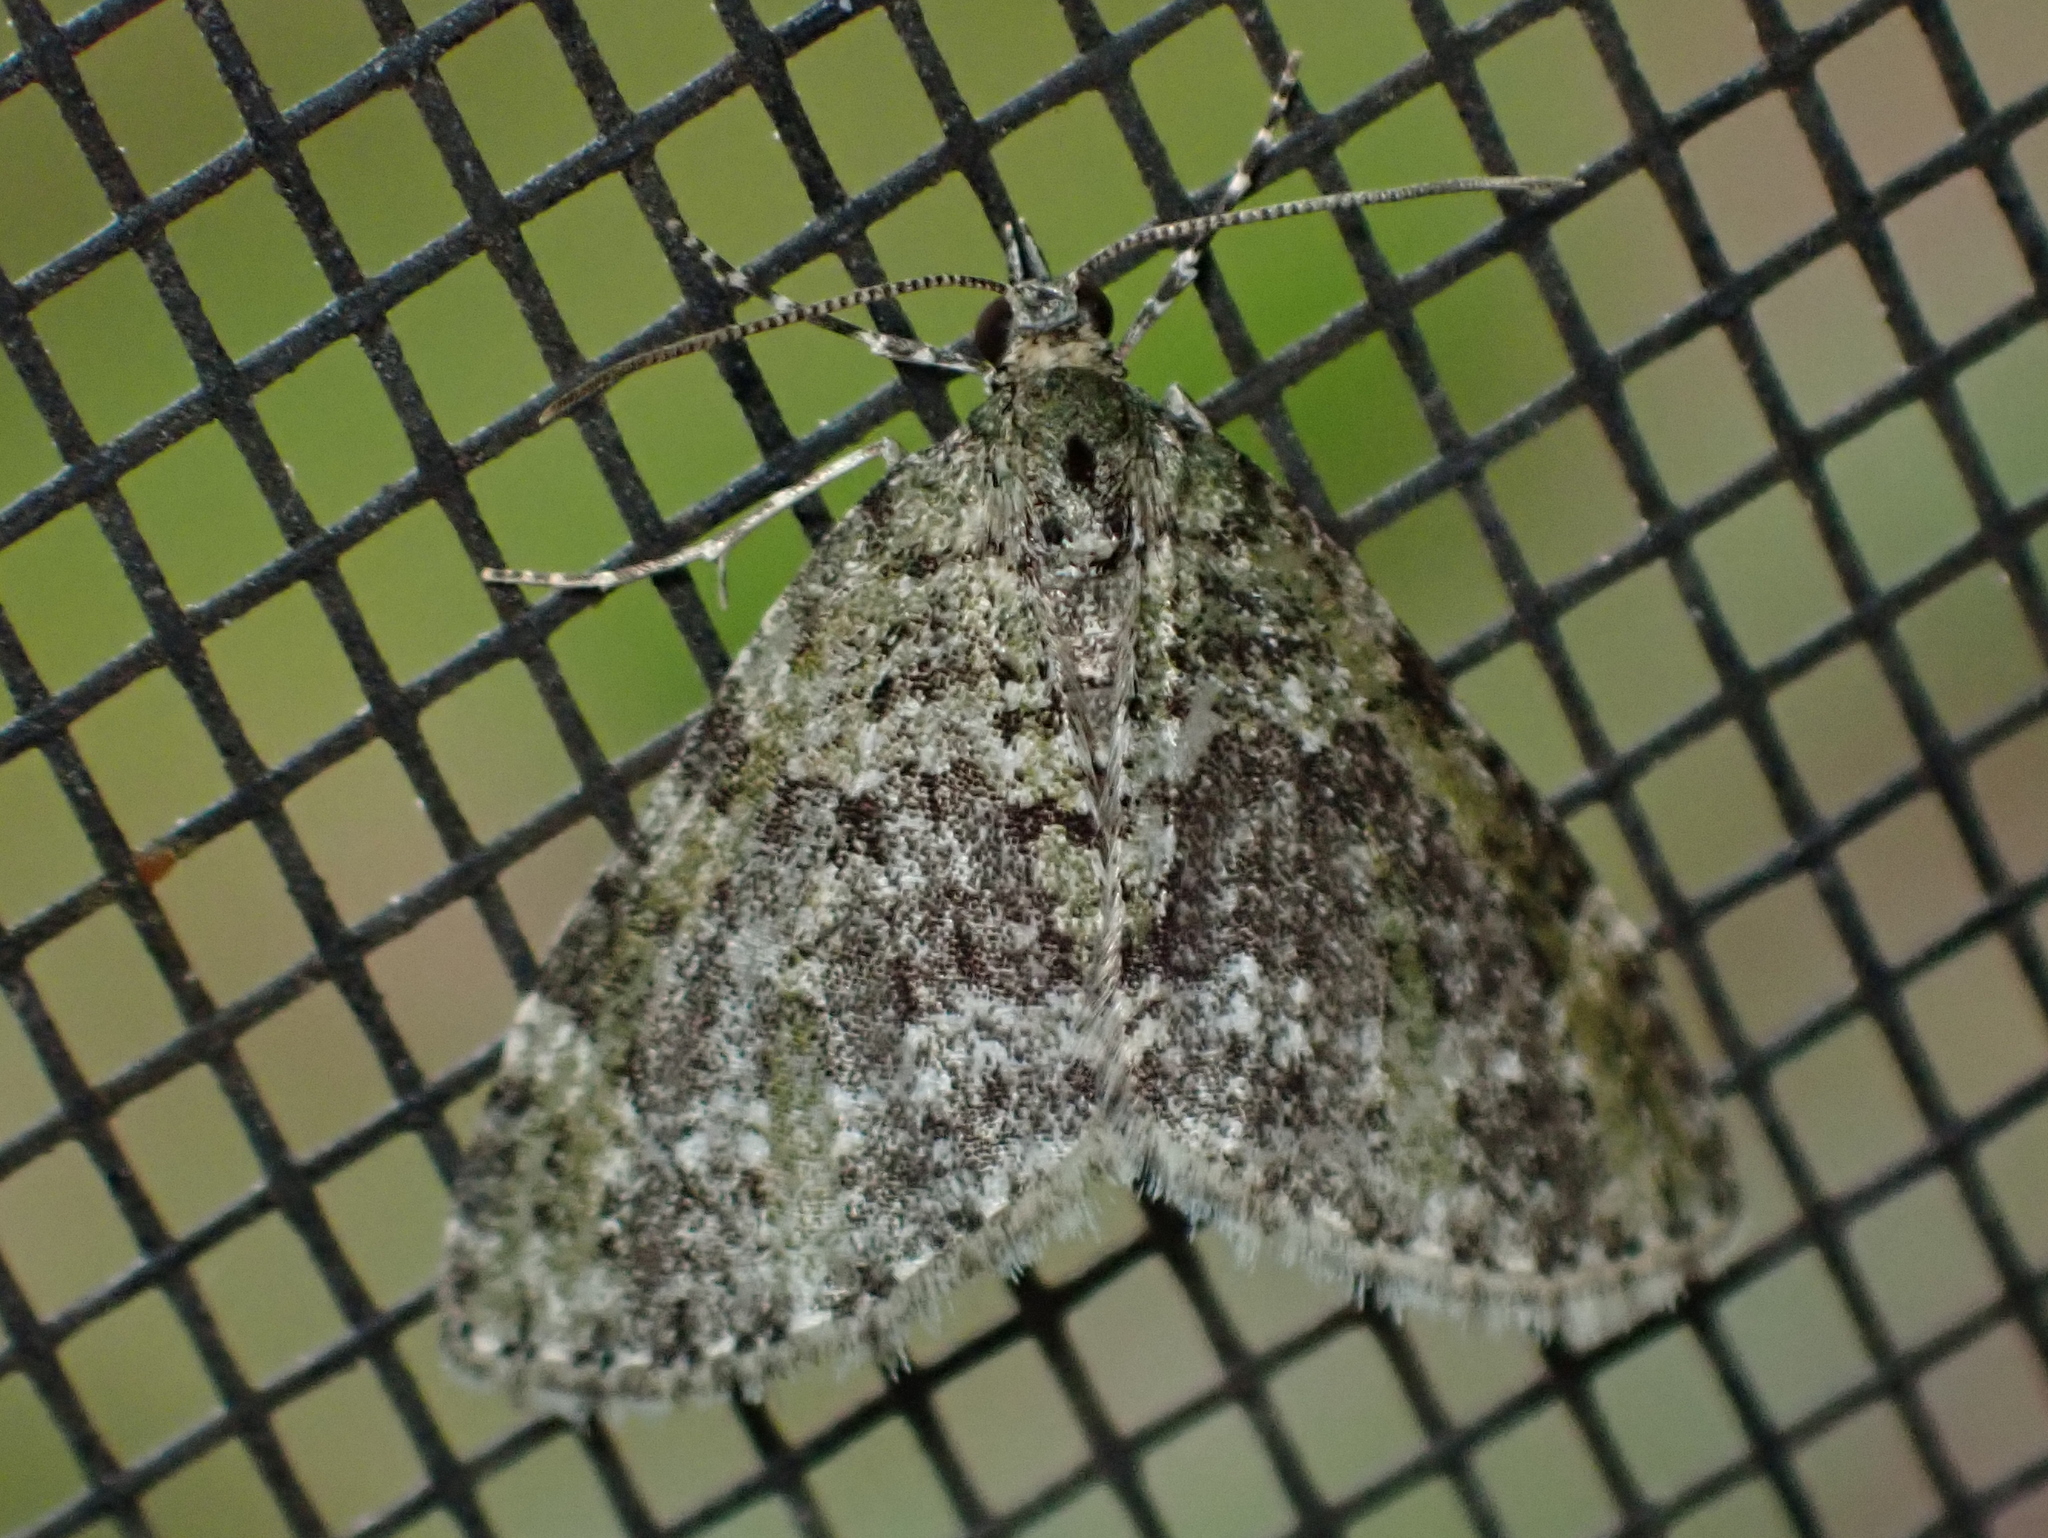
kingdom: Animalia
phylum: Arthropoda
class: Insecta
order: Lepidoptera
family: Geometridae
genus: Acasis
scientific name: Acasis viridata
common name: Olive-and-black carpet moth
